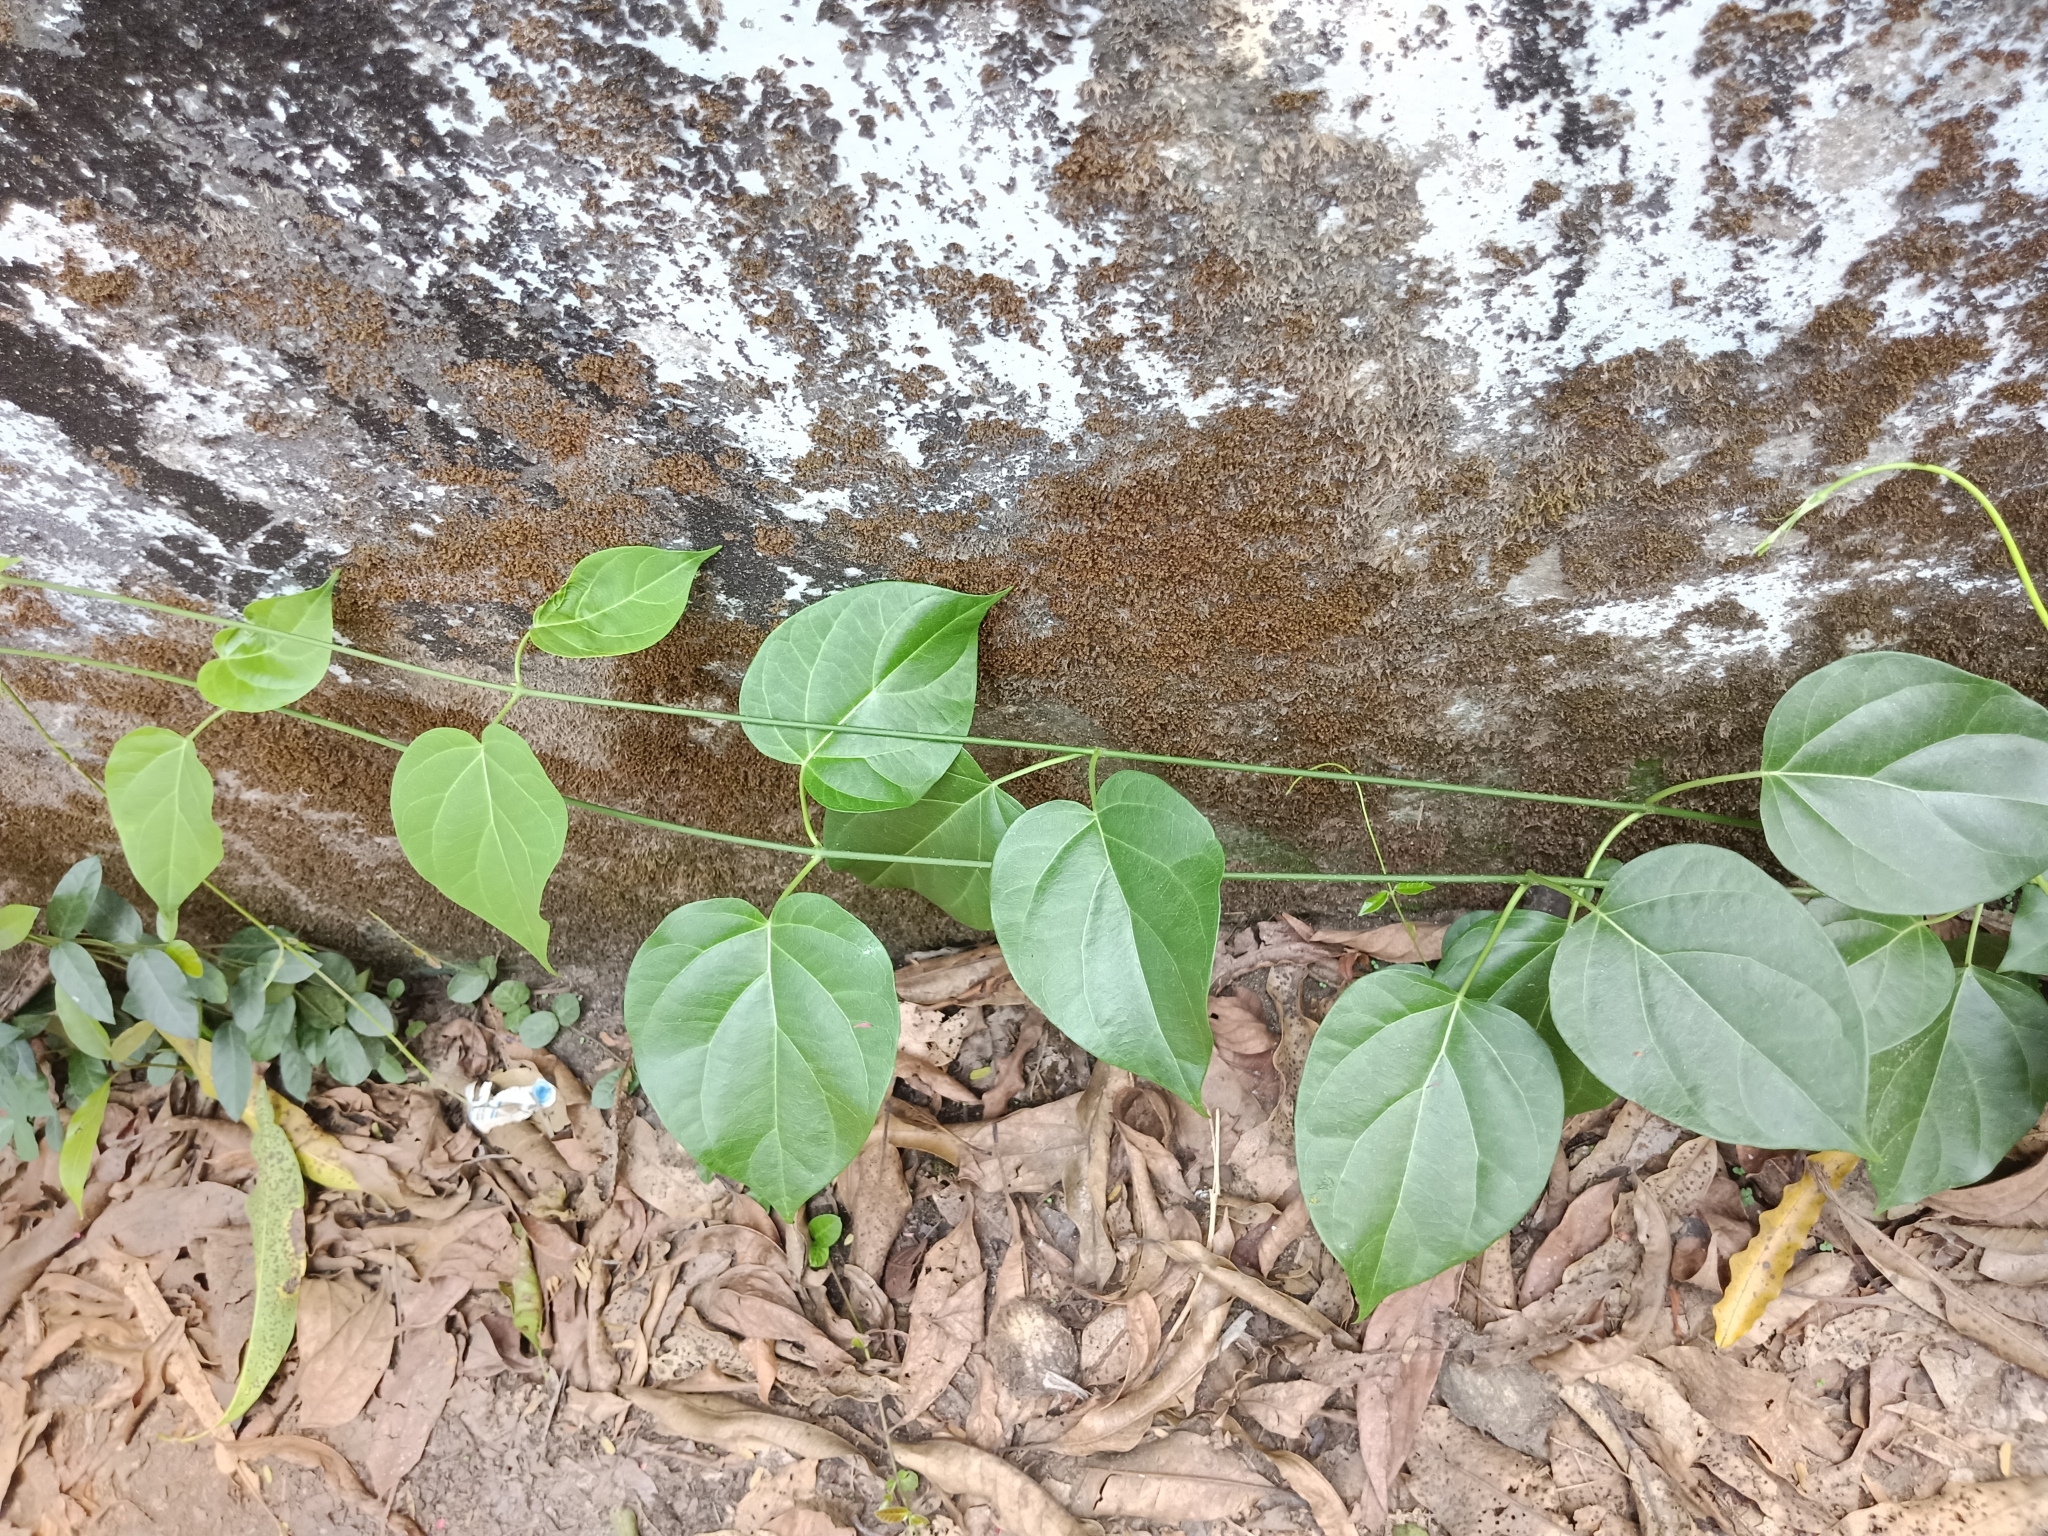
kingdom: Plantae
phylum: Tracheophyta
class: Magnoliopsida
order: Gentianales
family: Apocynaceae
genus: Stephanotis
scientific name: Stephanotis volubilis
